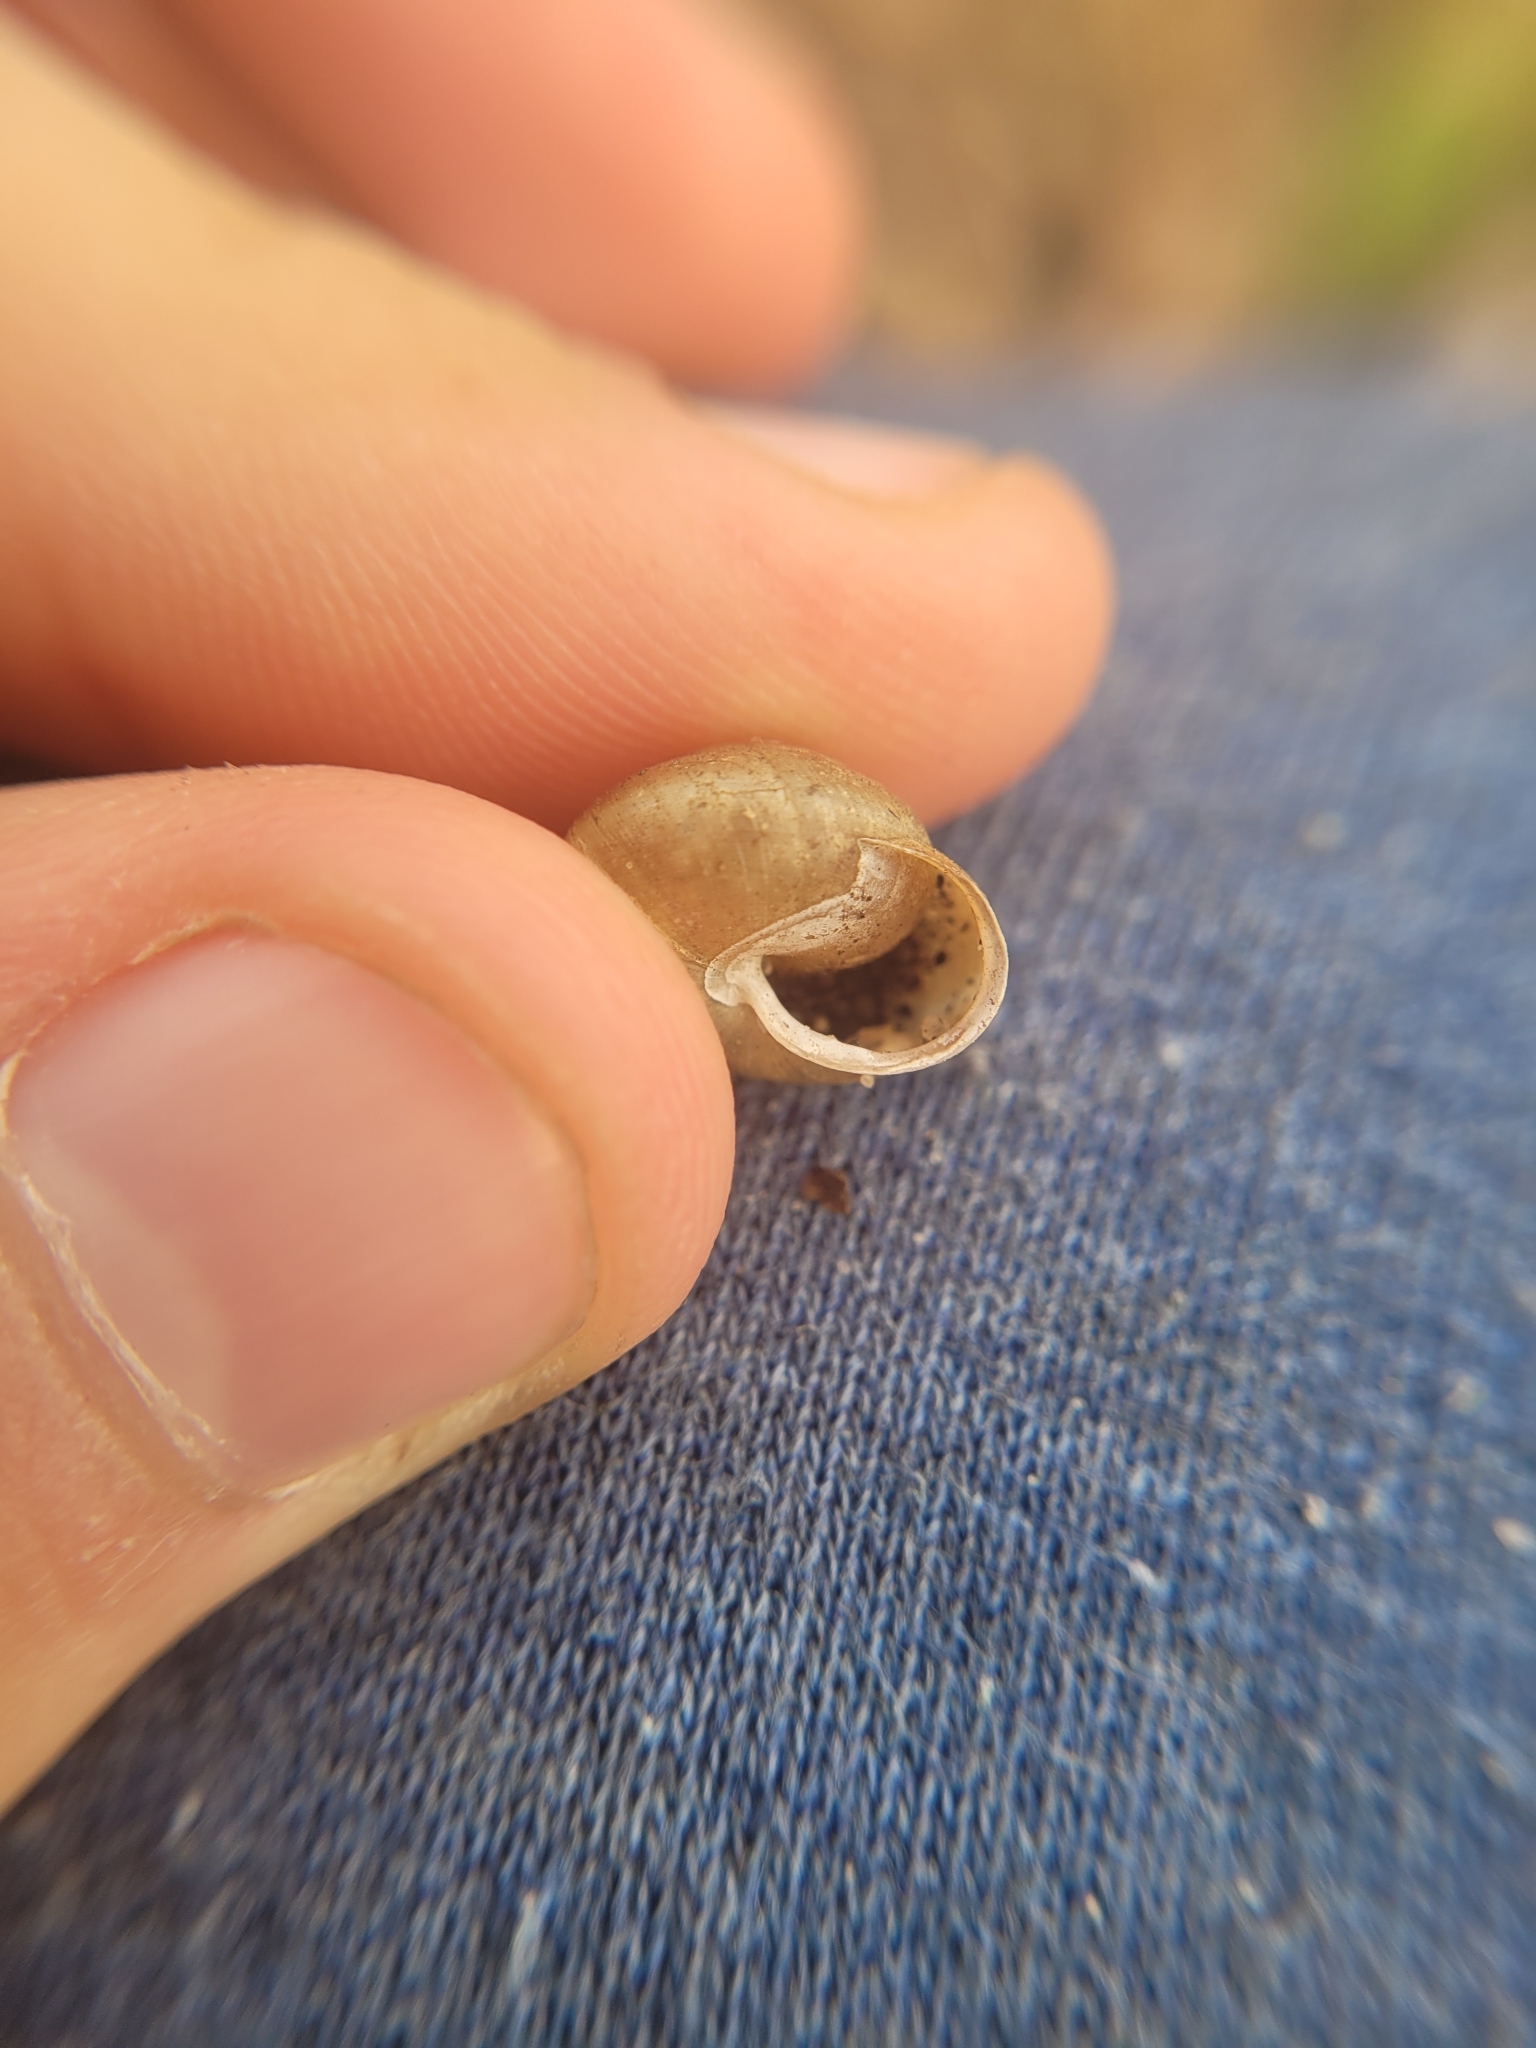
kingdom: Animalia
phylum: Mollusca
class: Gastropoda
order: Stylommatophora
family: Hygromiidae
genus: Monachoides
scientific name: Monachoides incarnatus
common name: Incarnate snail
